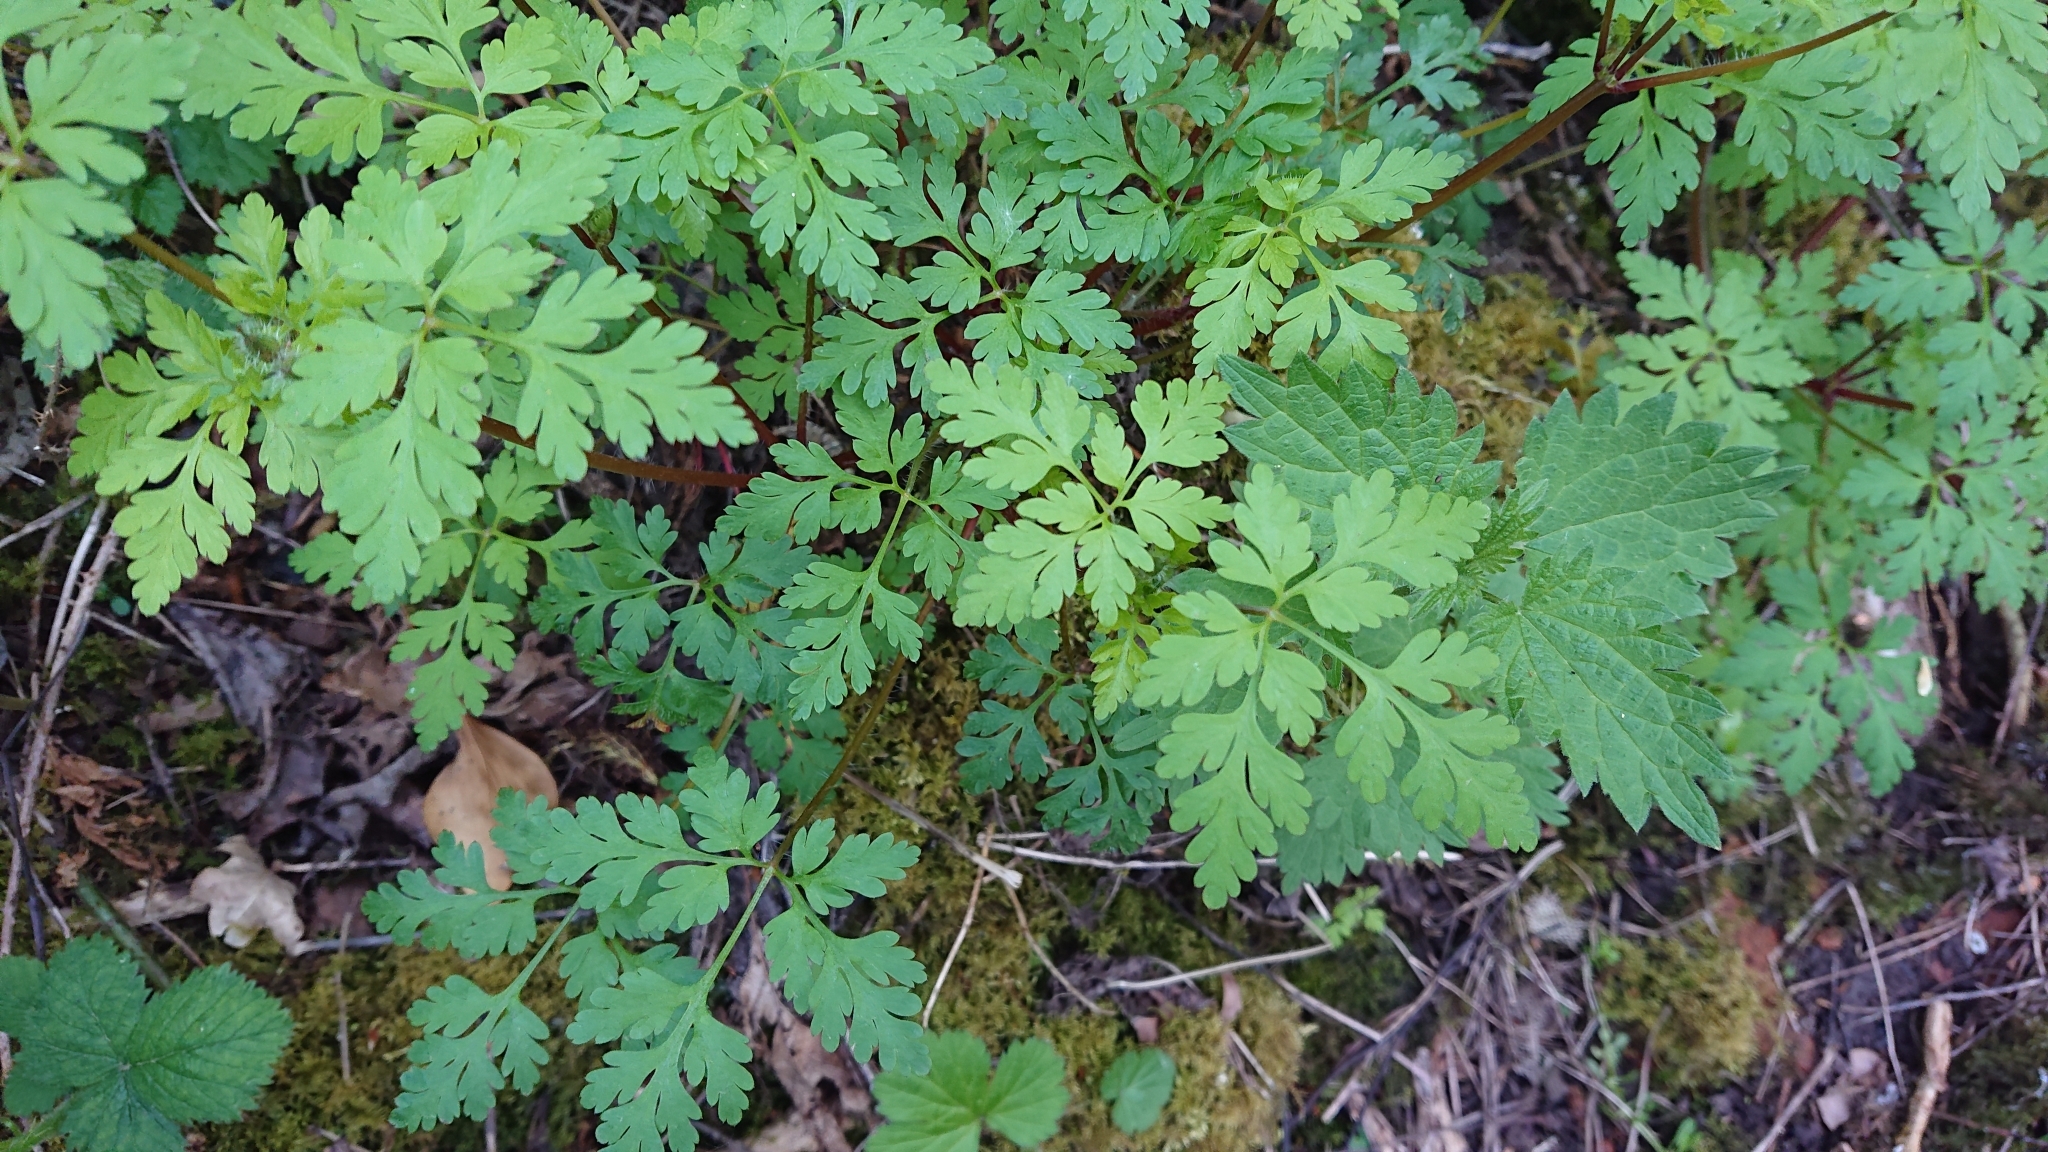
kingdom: Plantae
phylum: Tracheophyta
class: Magnoliopsida
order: Geraniales
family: Geraniaceae
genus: Geranium
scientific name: Geranium robertianum
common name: Herb-robert
